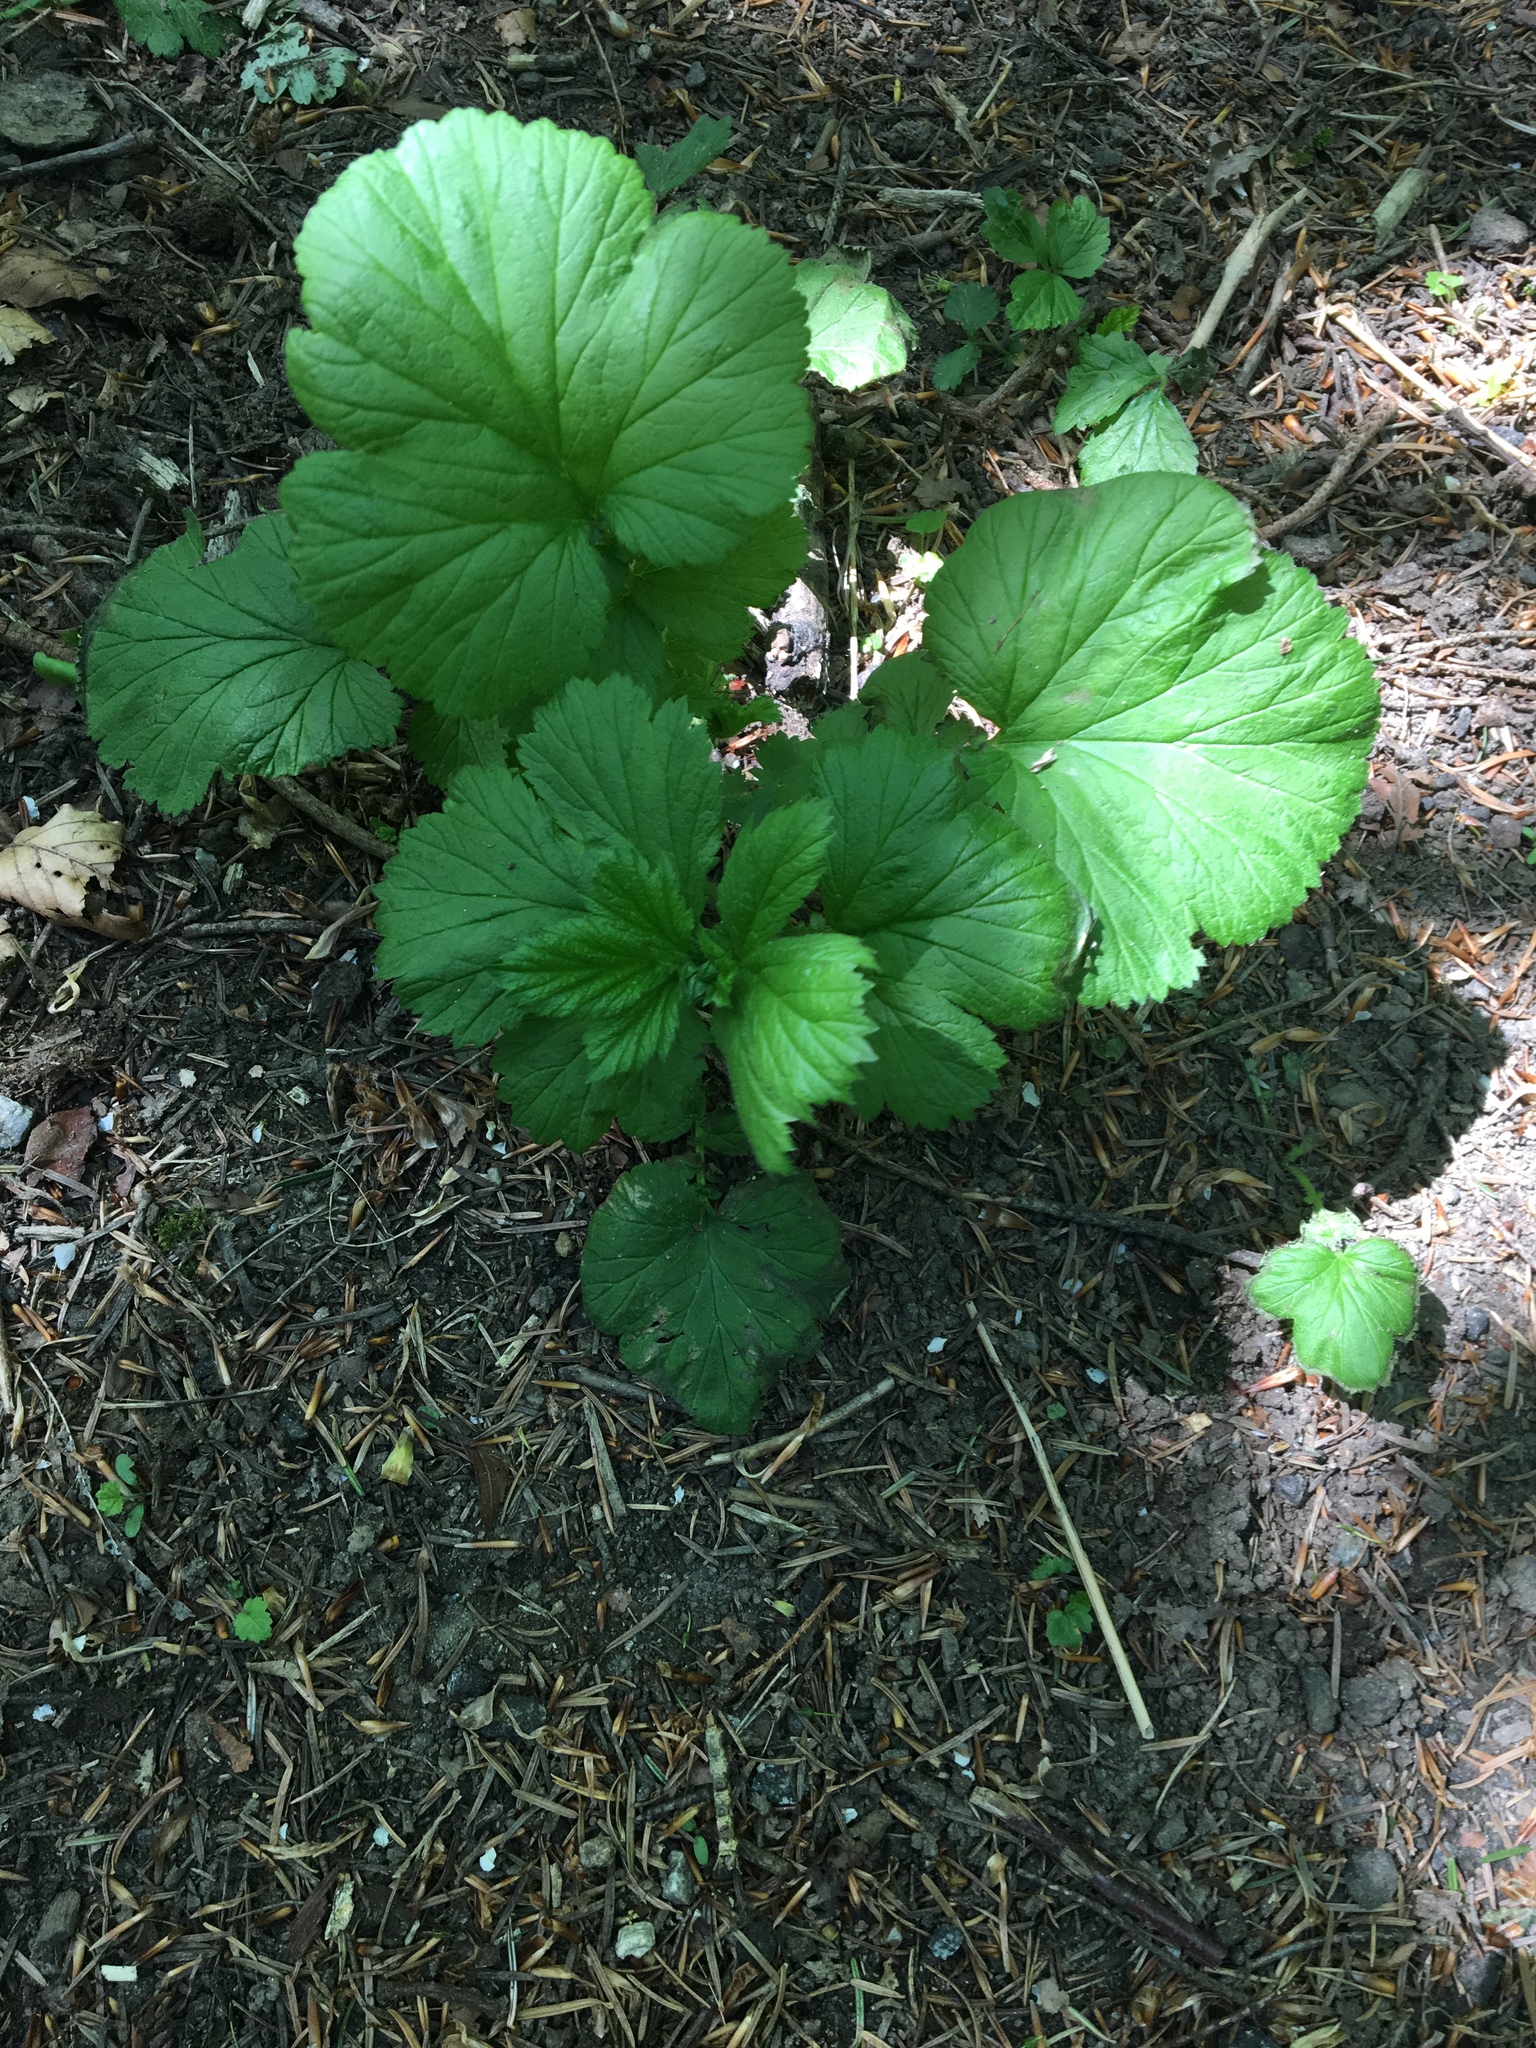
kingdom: Plantae
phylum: Tracheophyta
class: Magnoliopsida
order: Rosales
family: Rosaceae
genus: Geum
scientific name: Geum macrophyllum
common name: Large-leaved avens
